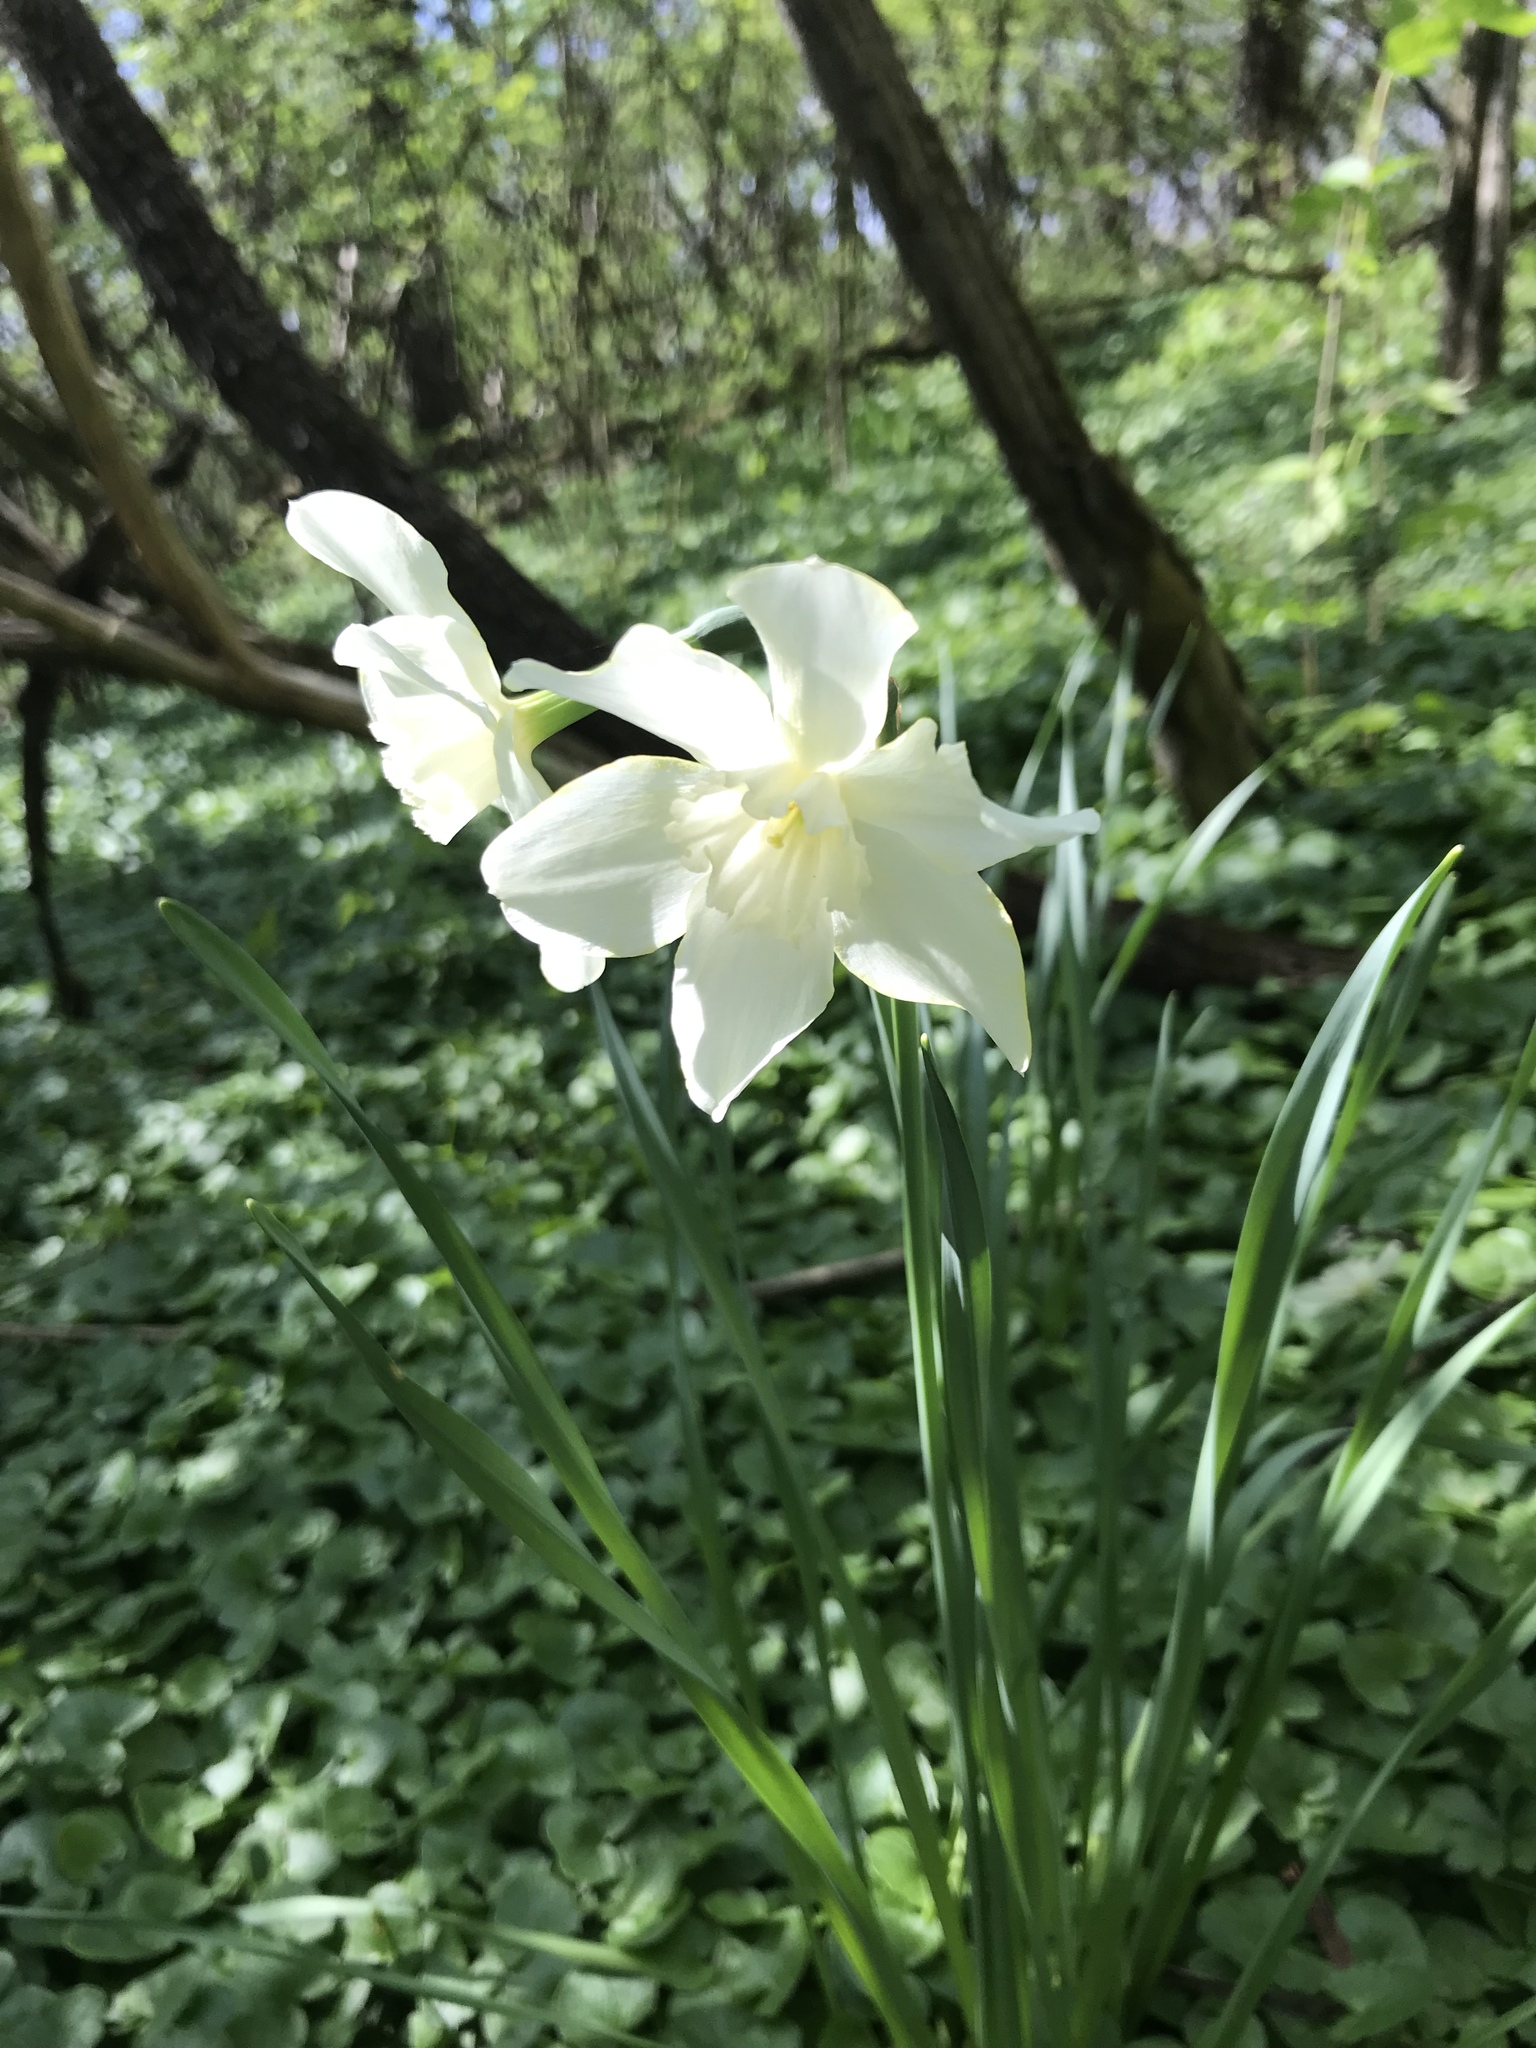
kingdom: Plantae
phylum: Tracheophyta
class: Liliopsida
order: Asparagales
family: Amaryllidaceae
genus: Narcissus
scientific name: Narcissus poeticus
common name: Pheasant's-eye daffodil
